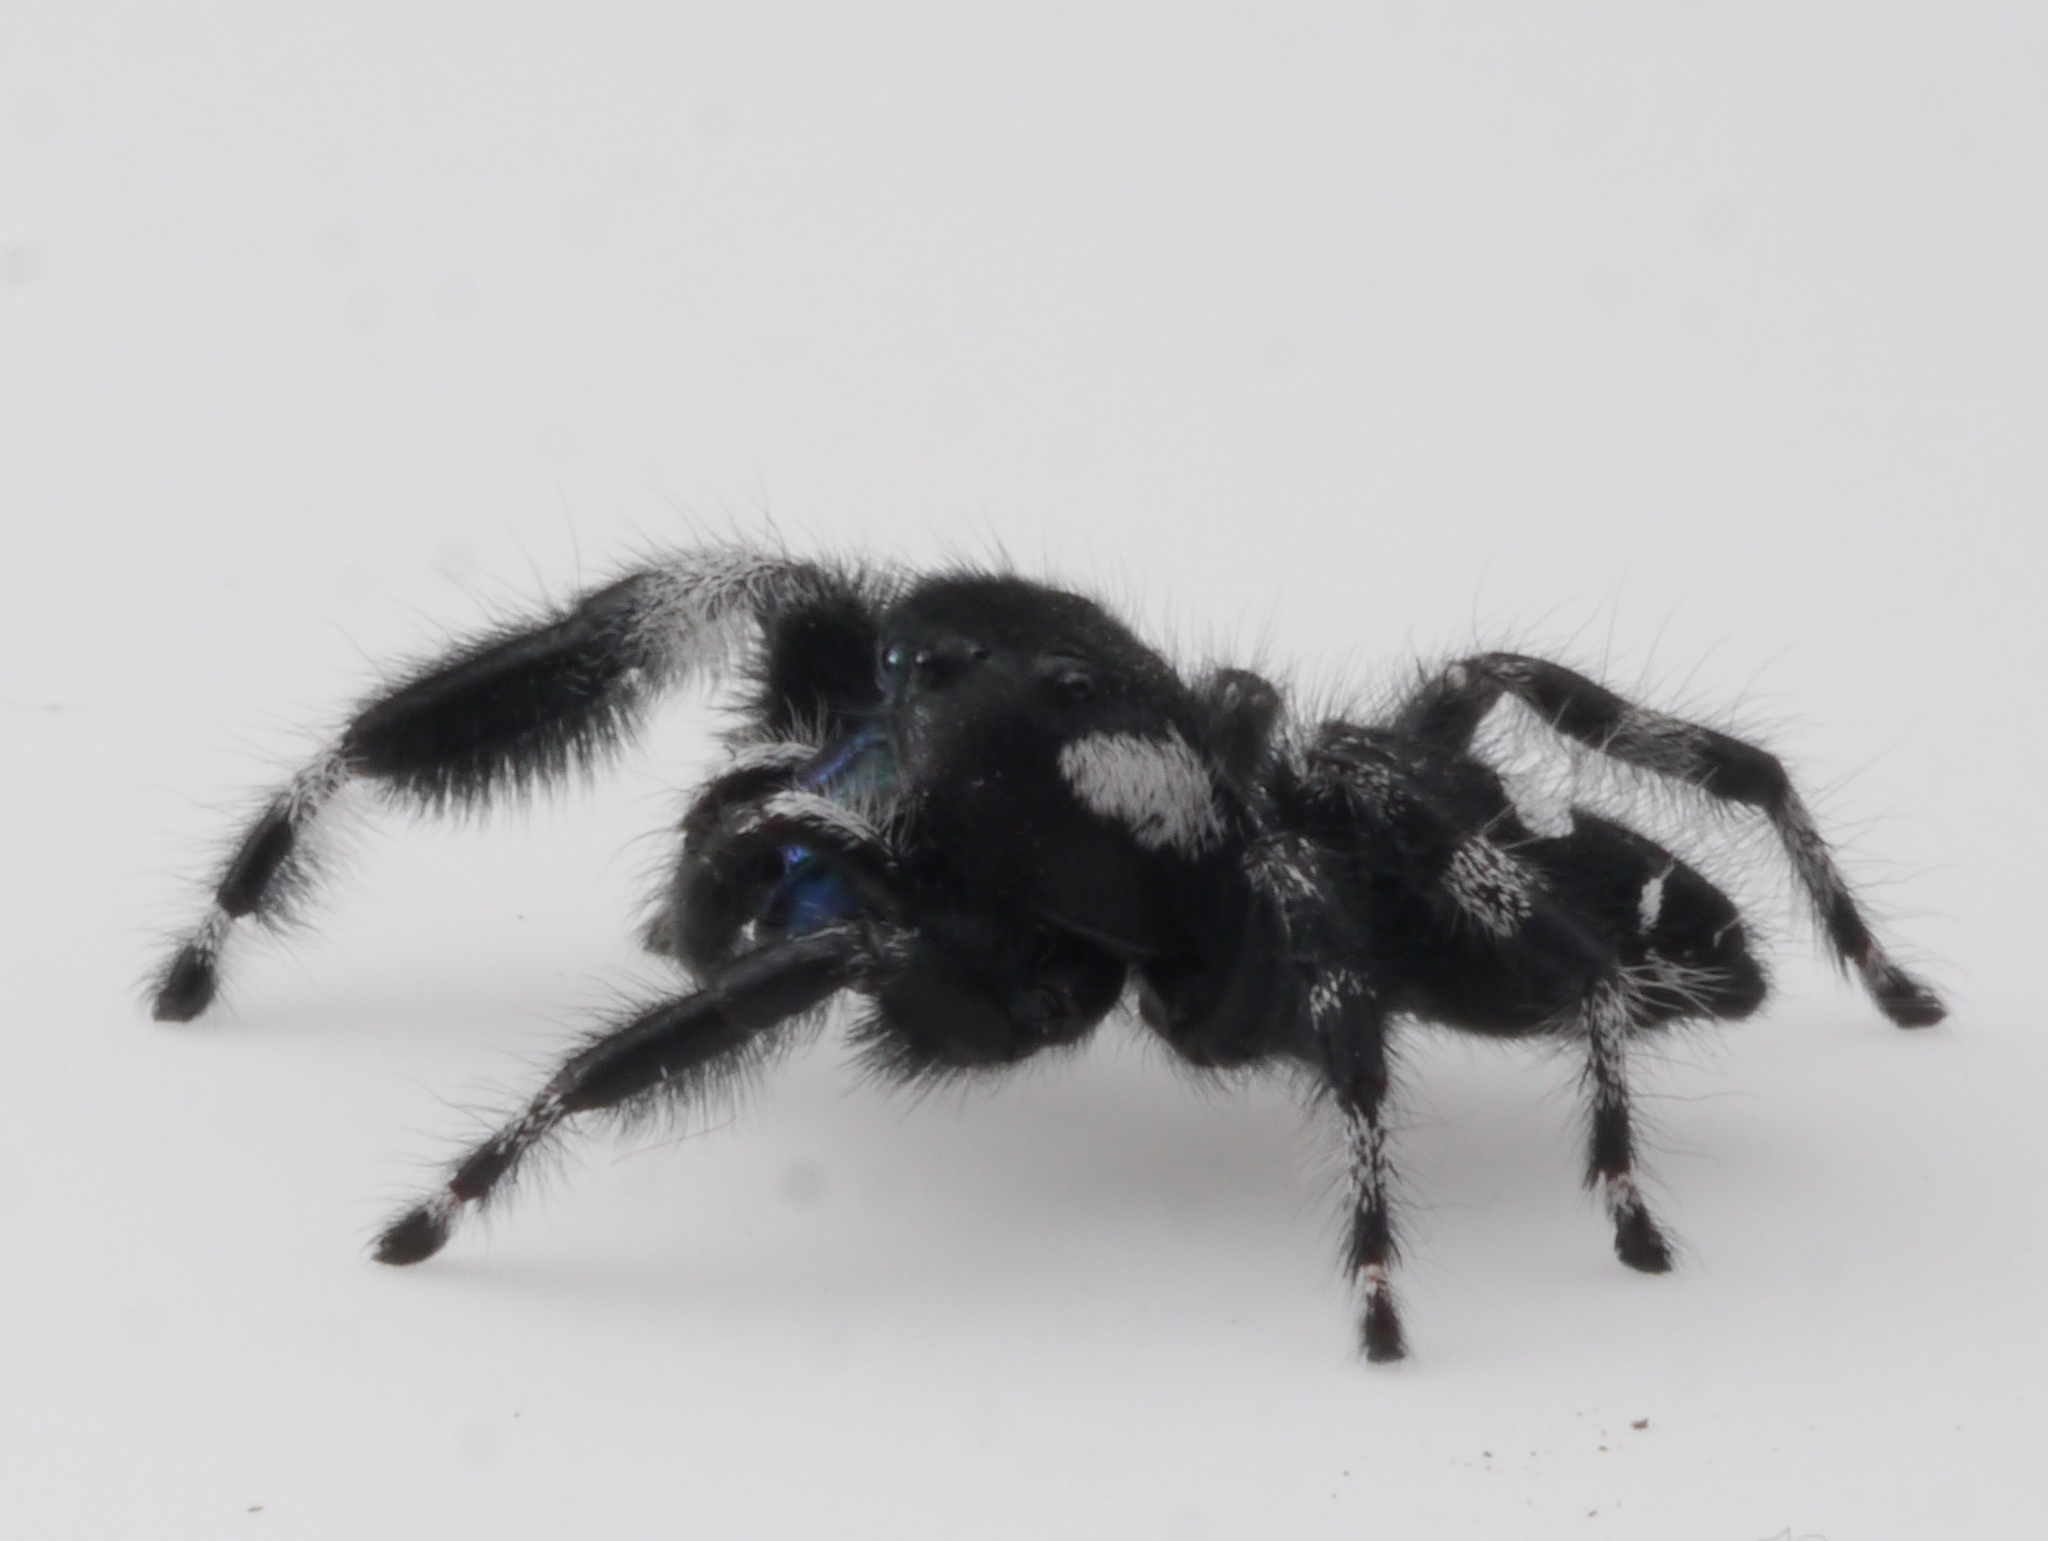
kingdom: Animalia
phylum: Arthropoda
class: Arachnida
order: Araneae
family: Salticidae
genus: Phidippus
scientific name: Phidippus audax
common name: Bold jumper
